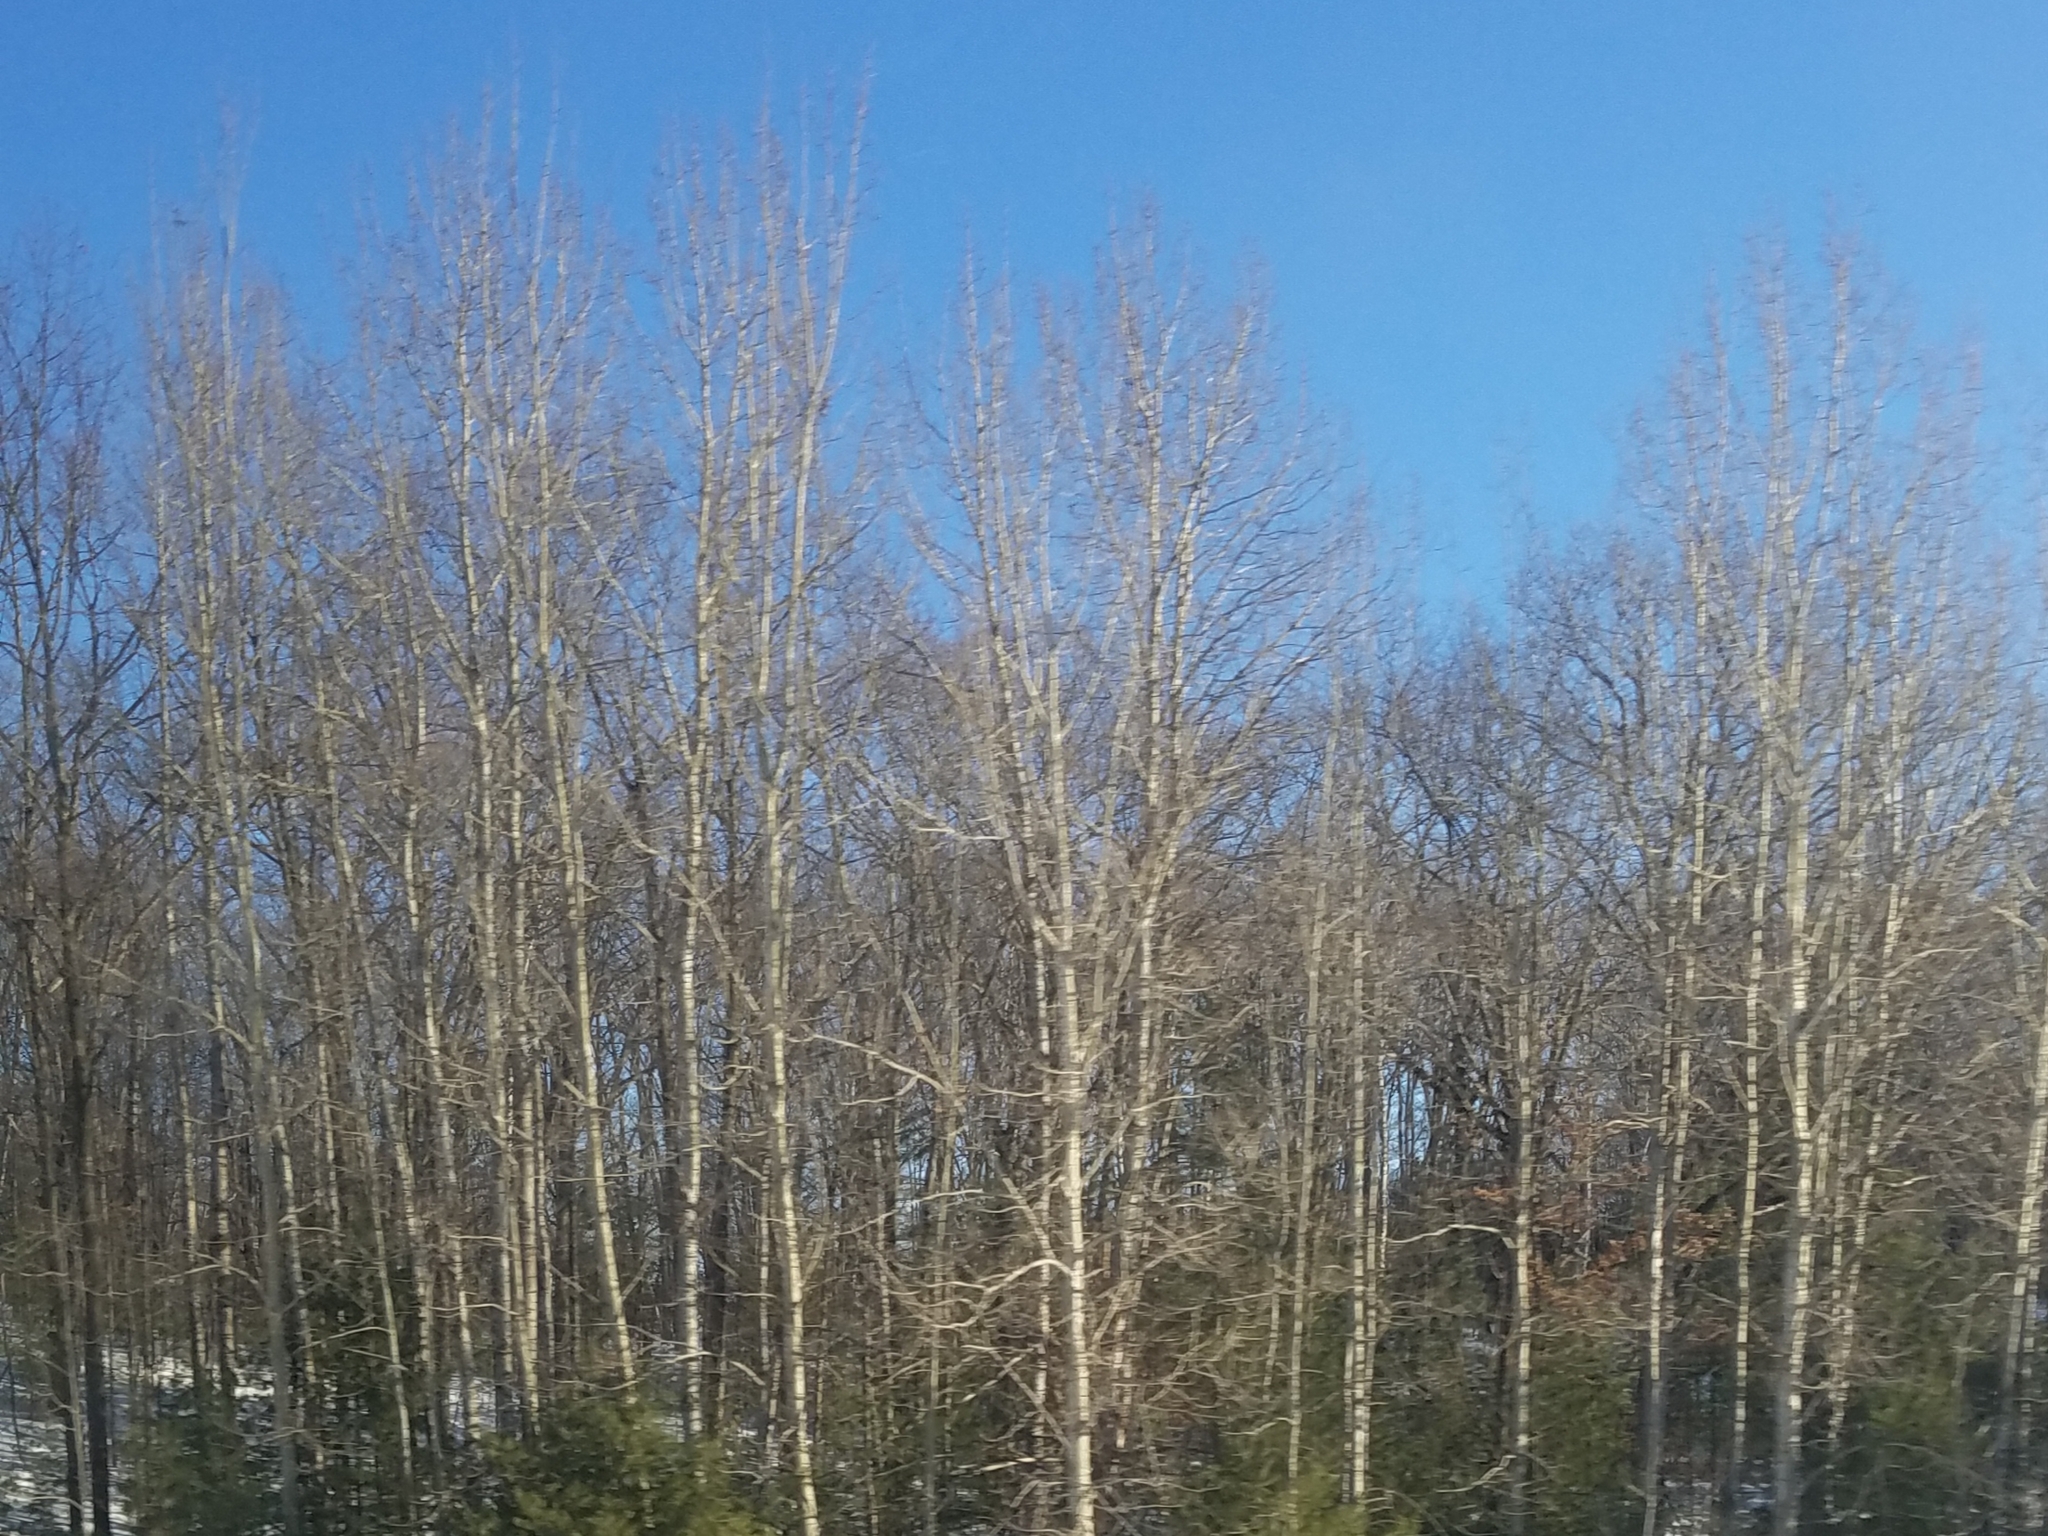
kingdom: Plantae
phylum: Tracheophyta
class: Magnoliopsida
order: Malpighiales
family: Salicaceae
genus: Populus
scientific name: Populus tremuloides
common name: Quaking aspen
